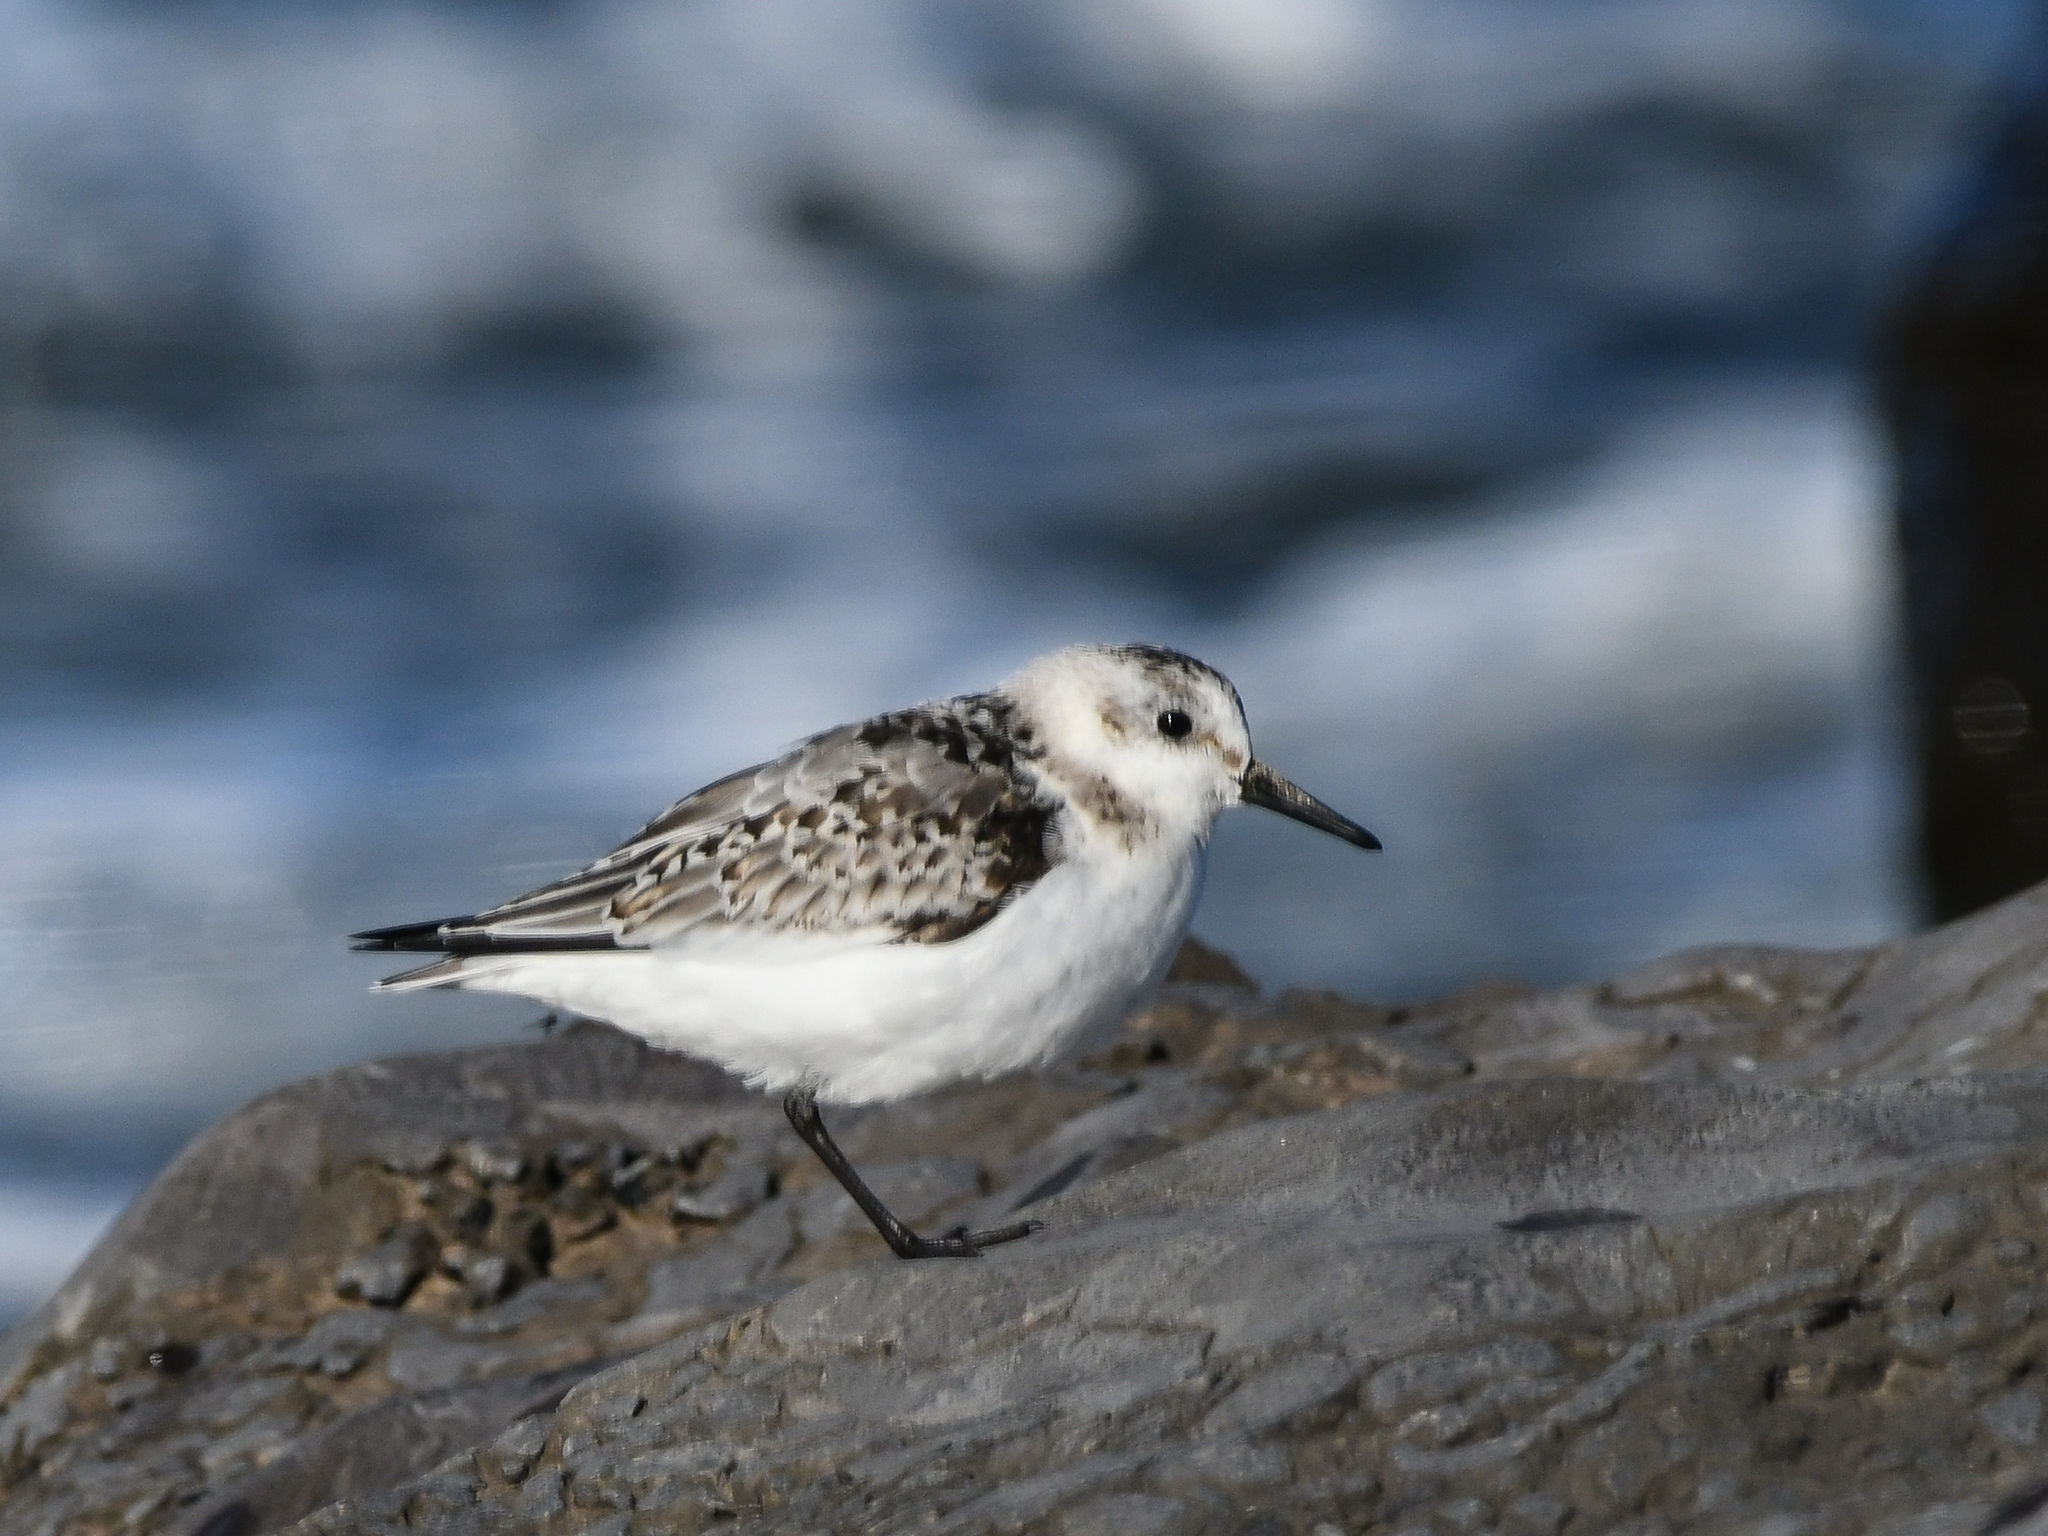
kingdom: Animalia
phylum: Chordata
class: Aves
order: Charadriiformes
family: Scolopacidae
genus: Calidris
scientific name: Calidris alba
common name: Sanderling
